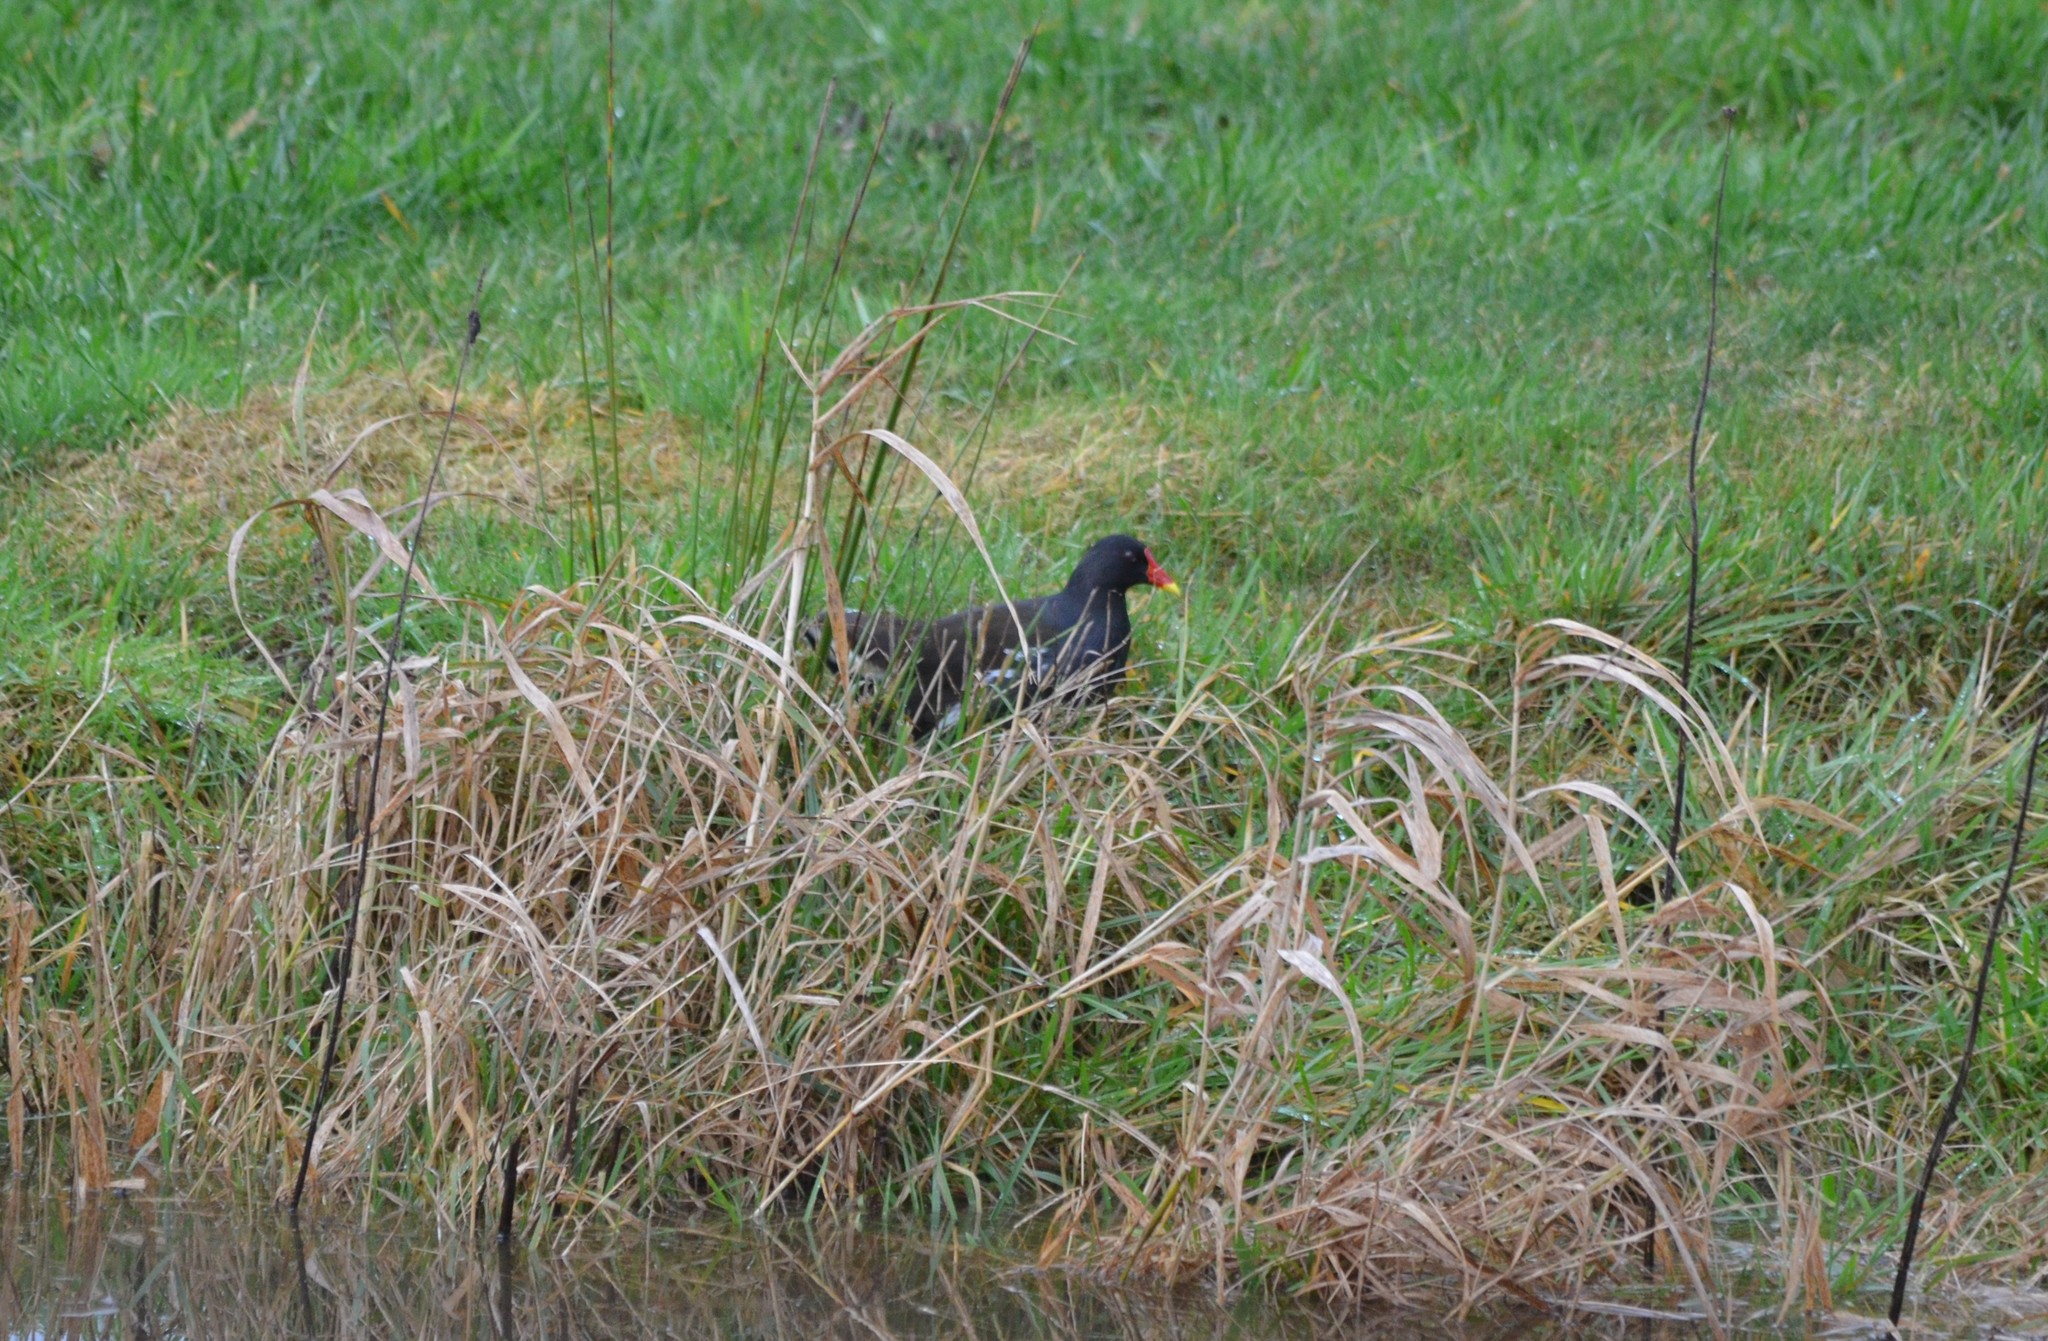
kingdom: Animalia
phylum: Chordata
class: Aves
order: Gruiformes
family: Rallidae
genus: Gallinula
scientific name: Gallinula chloropus
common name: Common moorhen
